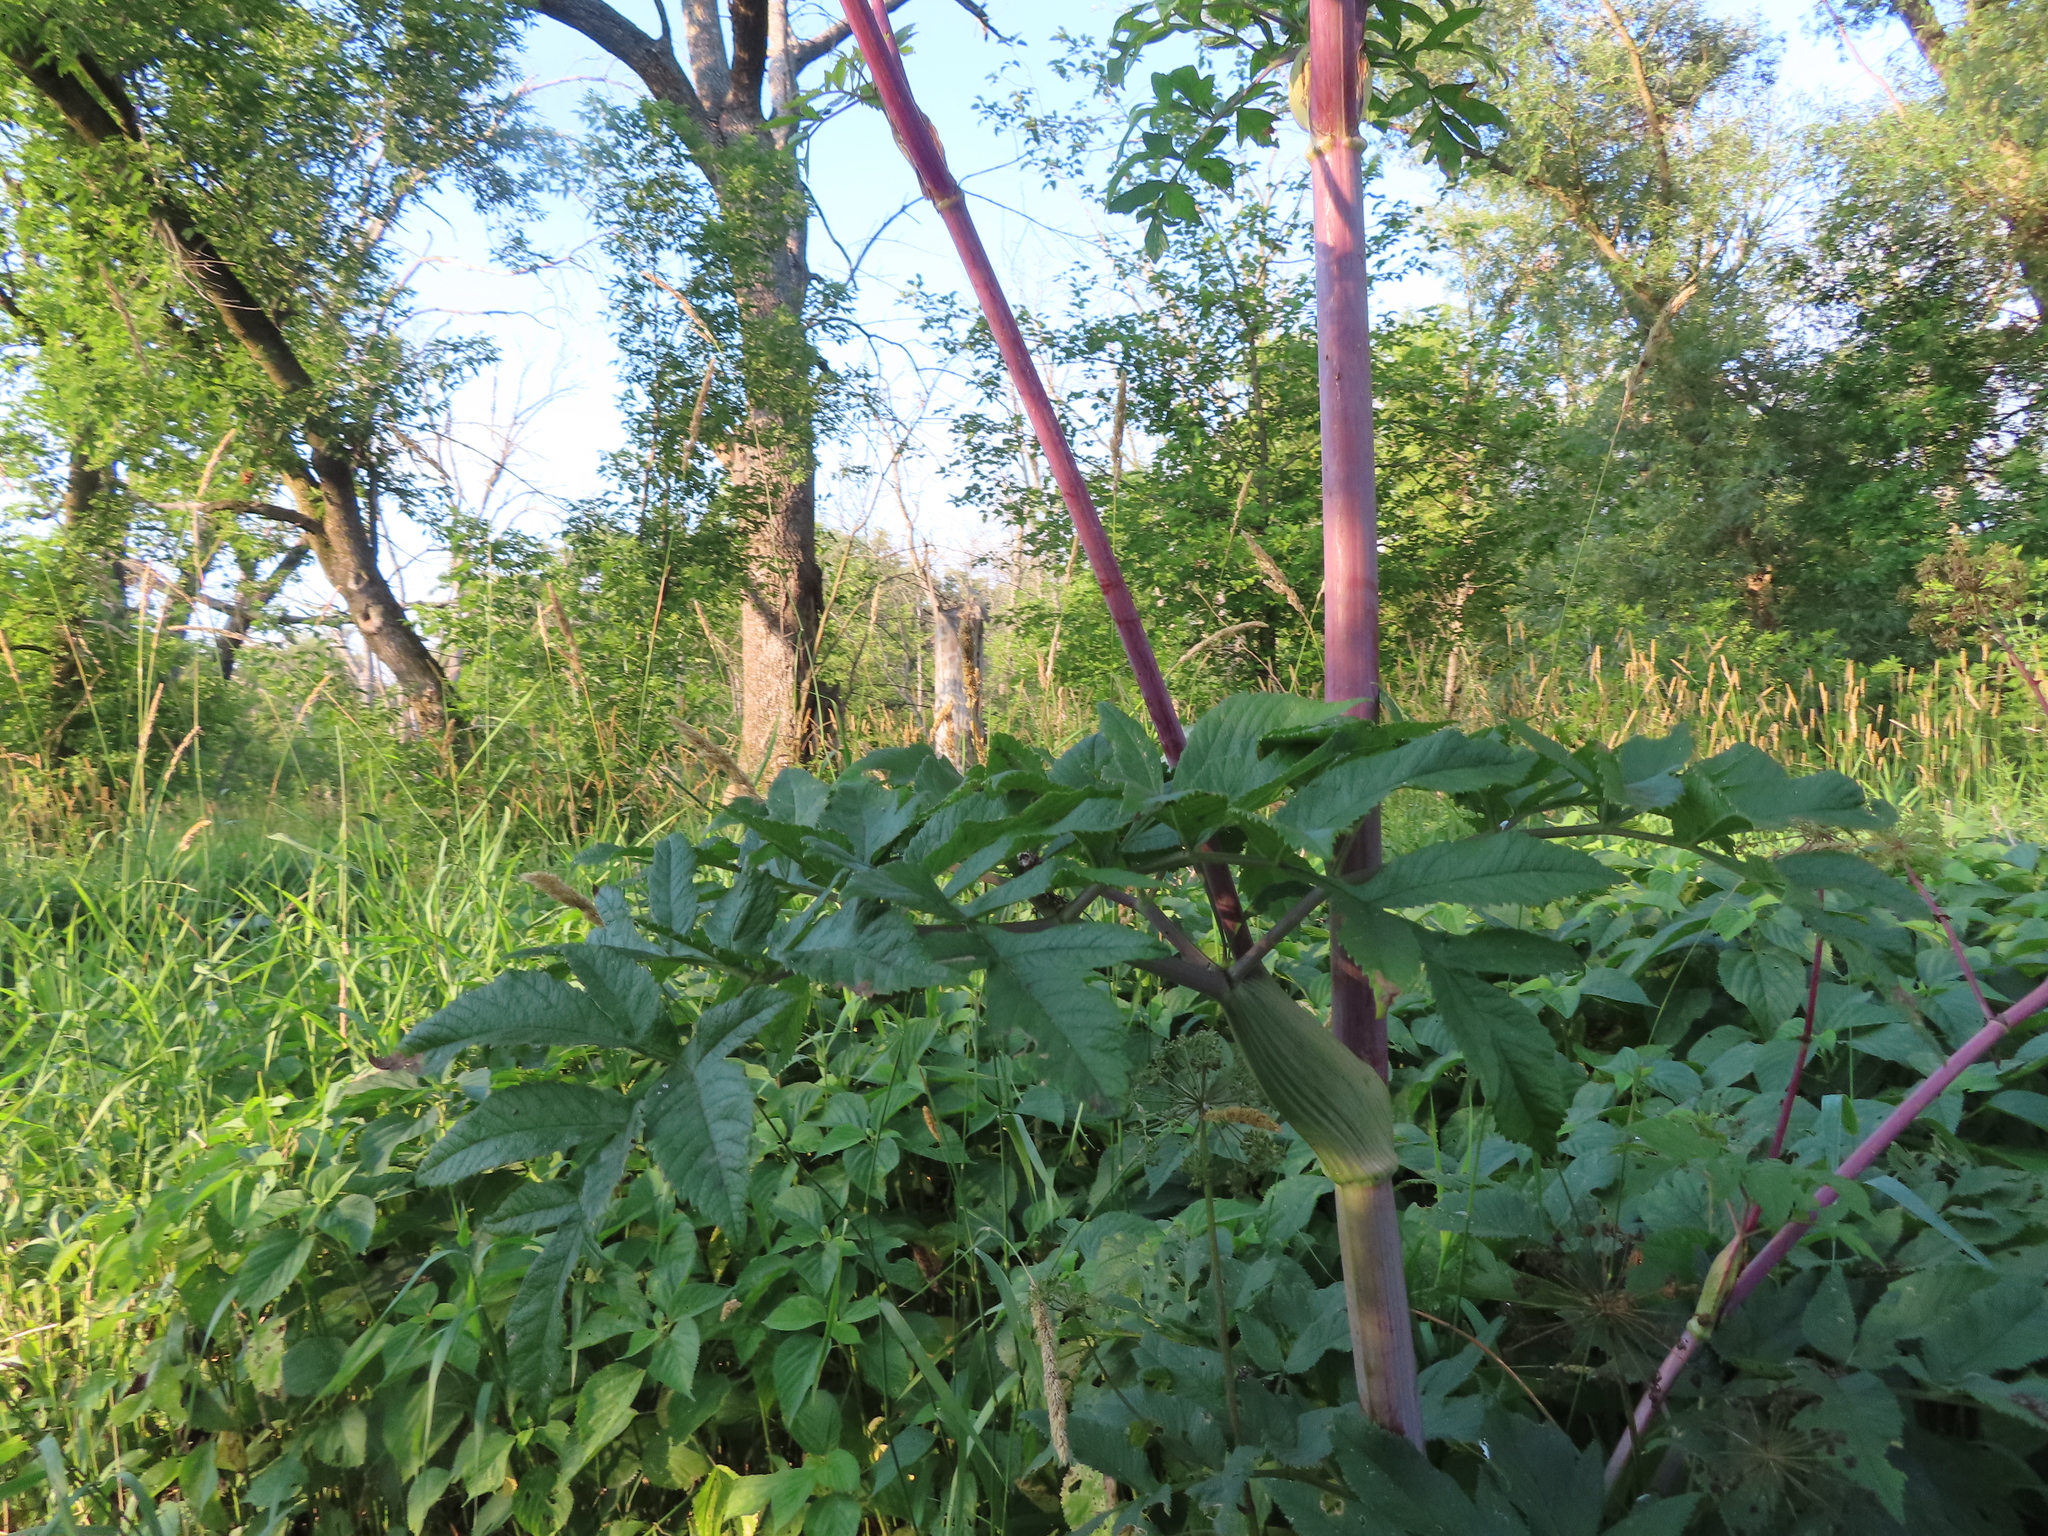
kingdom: Plantae
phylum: Tracheophyta
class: Magnoliopsida
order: Apiales
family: Apiaceae
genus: Angelica
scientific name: Angelica atropurpurea
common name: Great angelica
